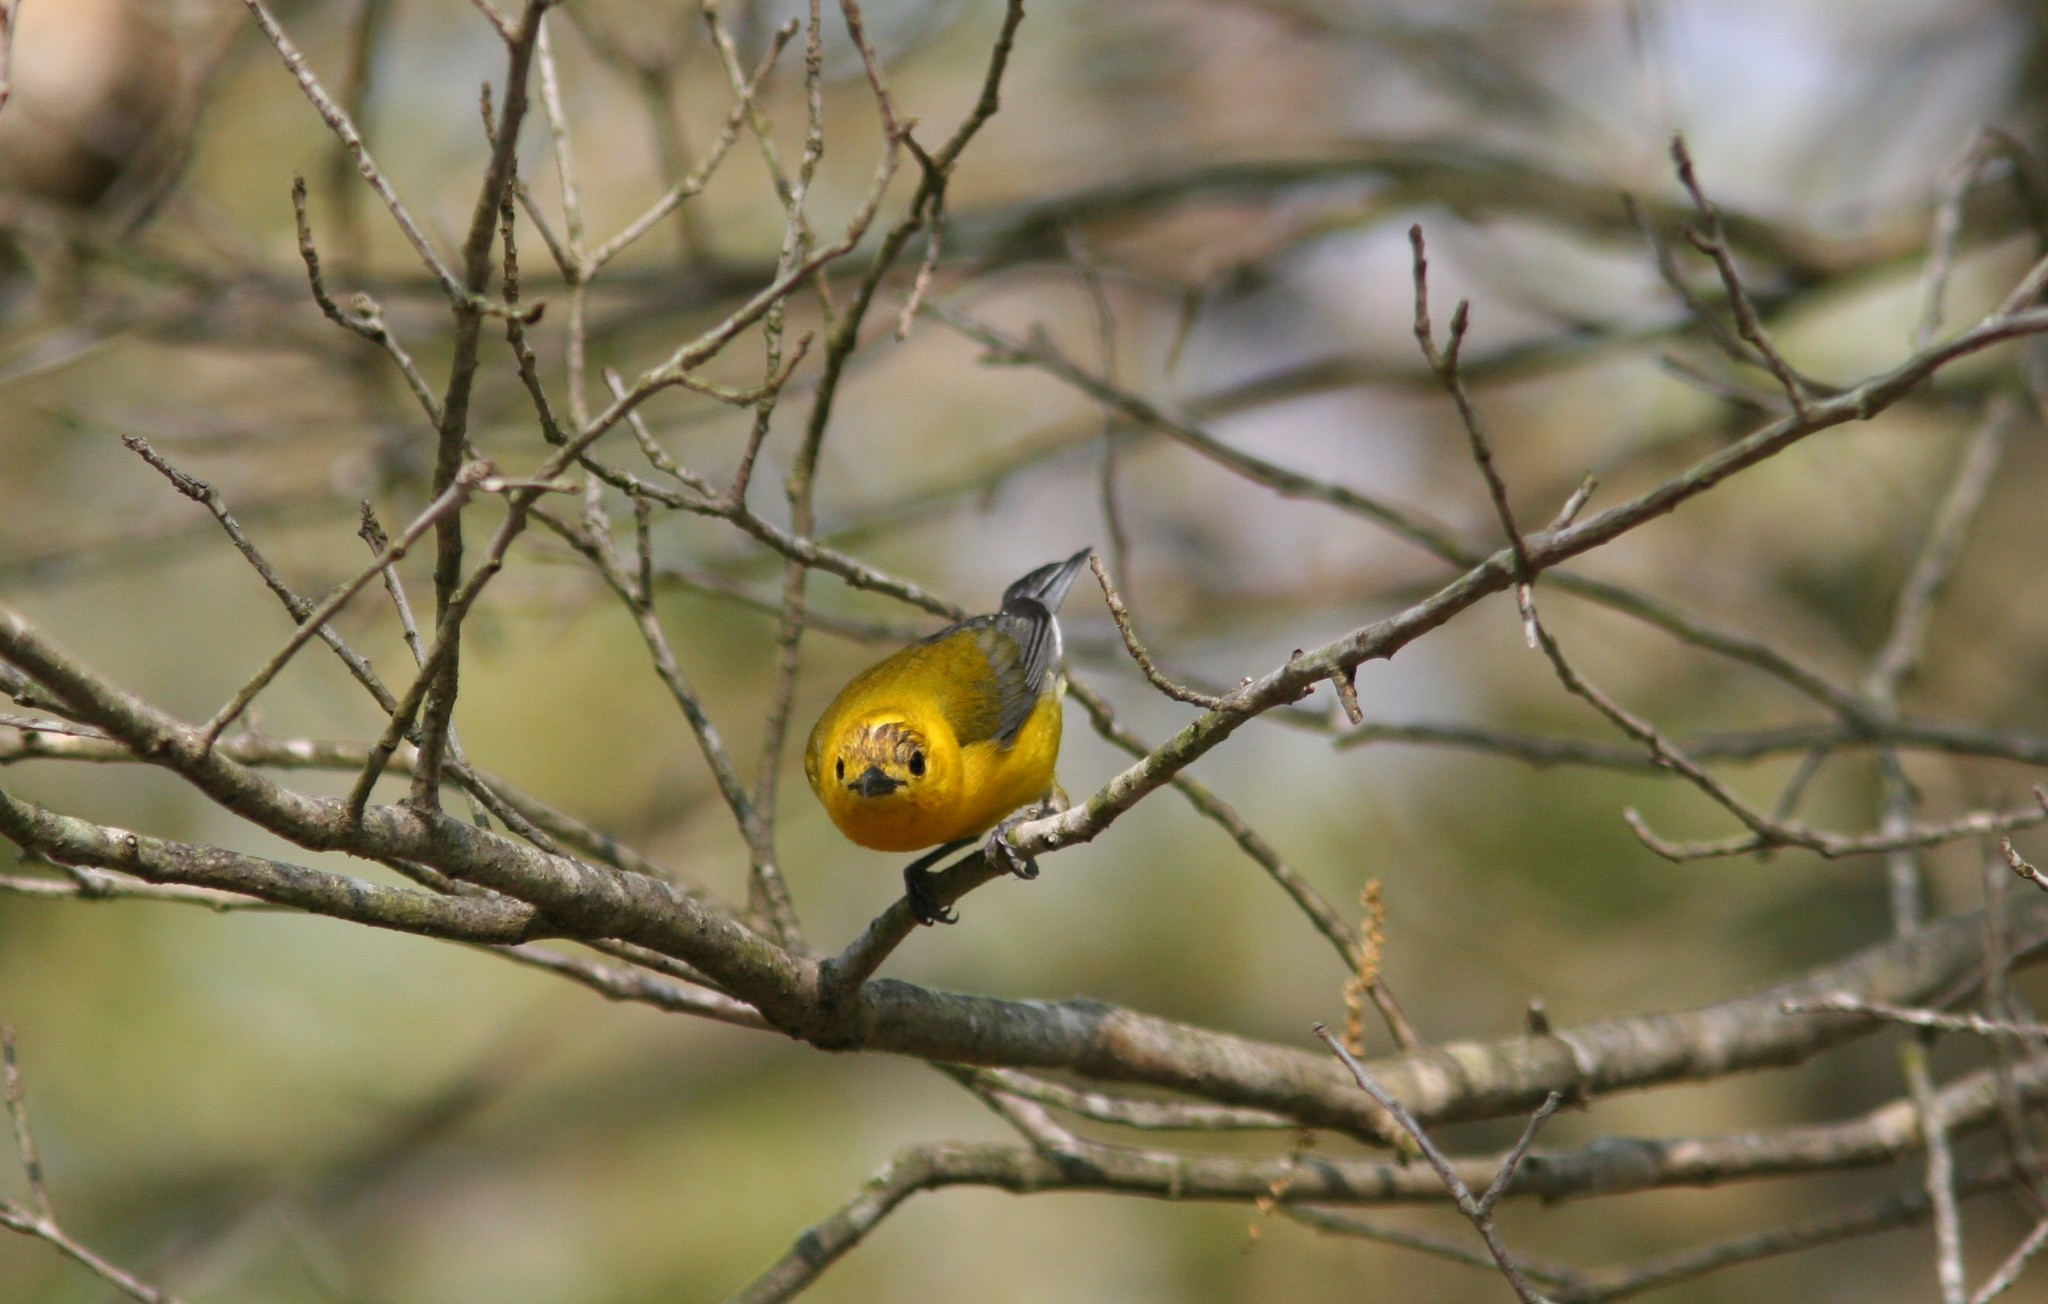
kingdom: Animalia
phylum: Chordata
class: Aves
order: Passeriformes
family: Parulidae
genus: Protonotaria
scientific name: Protonotaria citrea
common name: Prothonotary warbler
